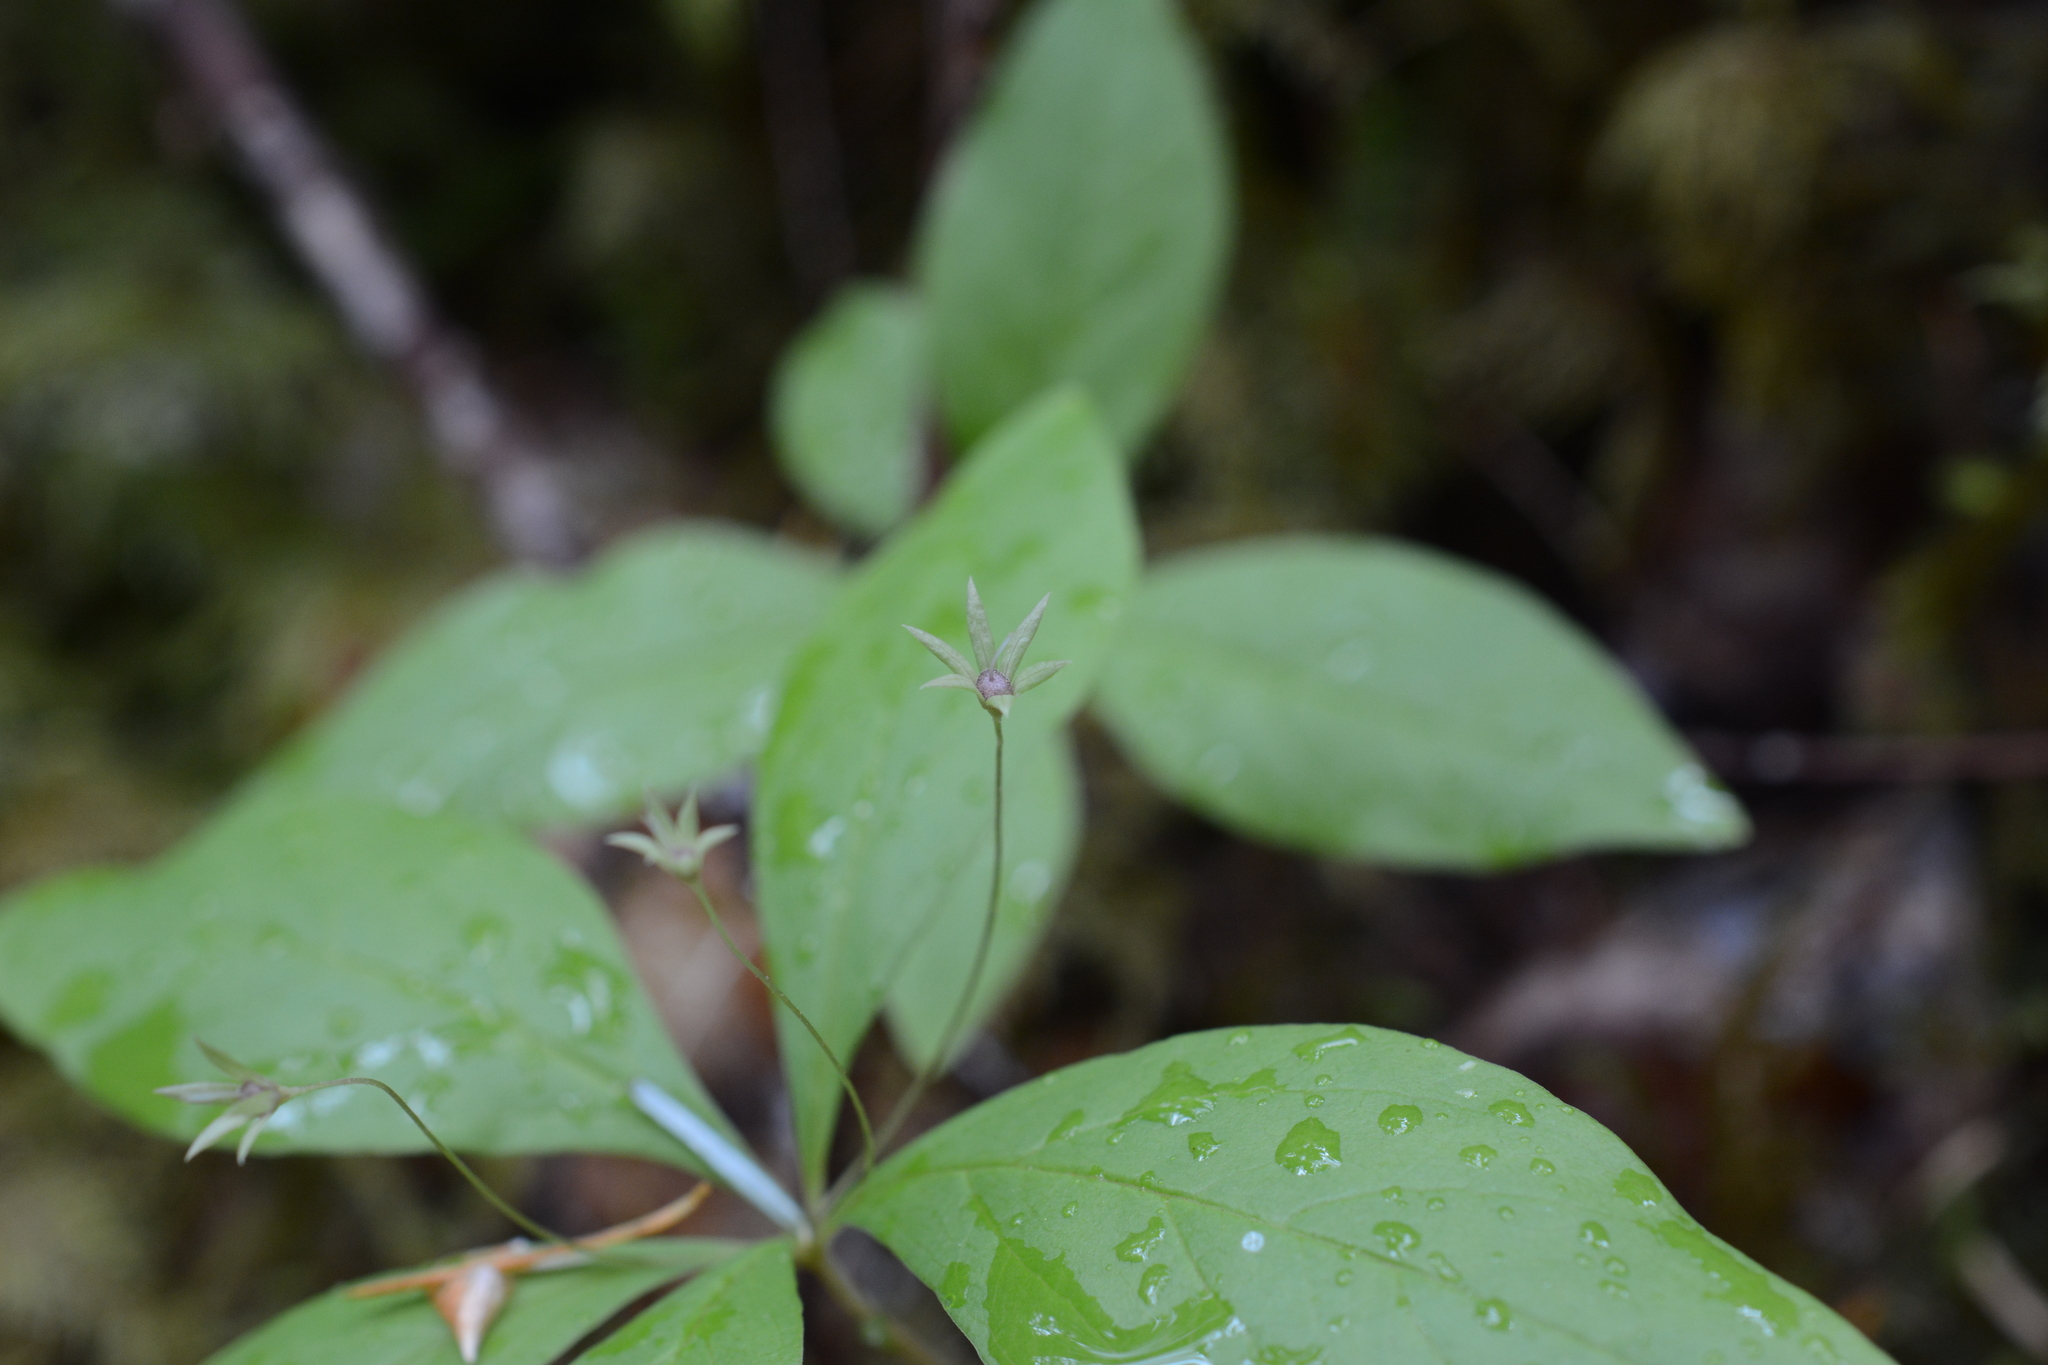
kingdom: Plantae
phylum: Tracheophyta
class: Magnoliopsida
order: Ericales
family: Primulaceae
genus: Lysimachia
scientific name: Lysimachia latifolia
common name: Pacific starflower
